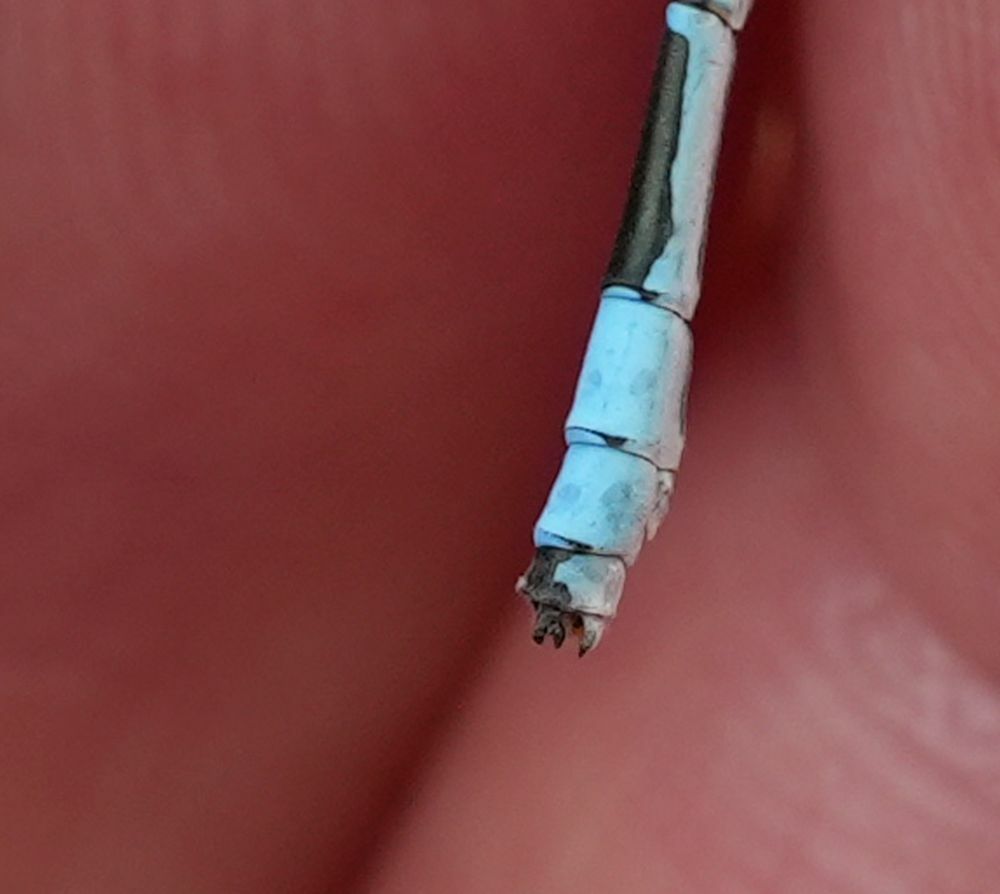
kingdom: Animalia
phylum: Arthropoda
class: Insecta
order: Odonata
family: Coenagrionidae
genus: Enallagma
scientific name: Enallagma ebrium
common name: Marsh bluet
